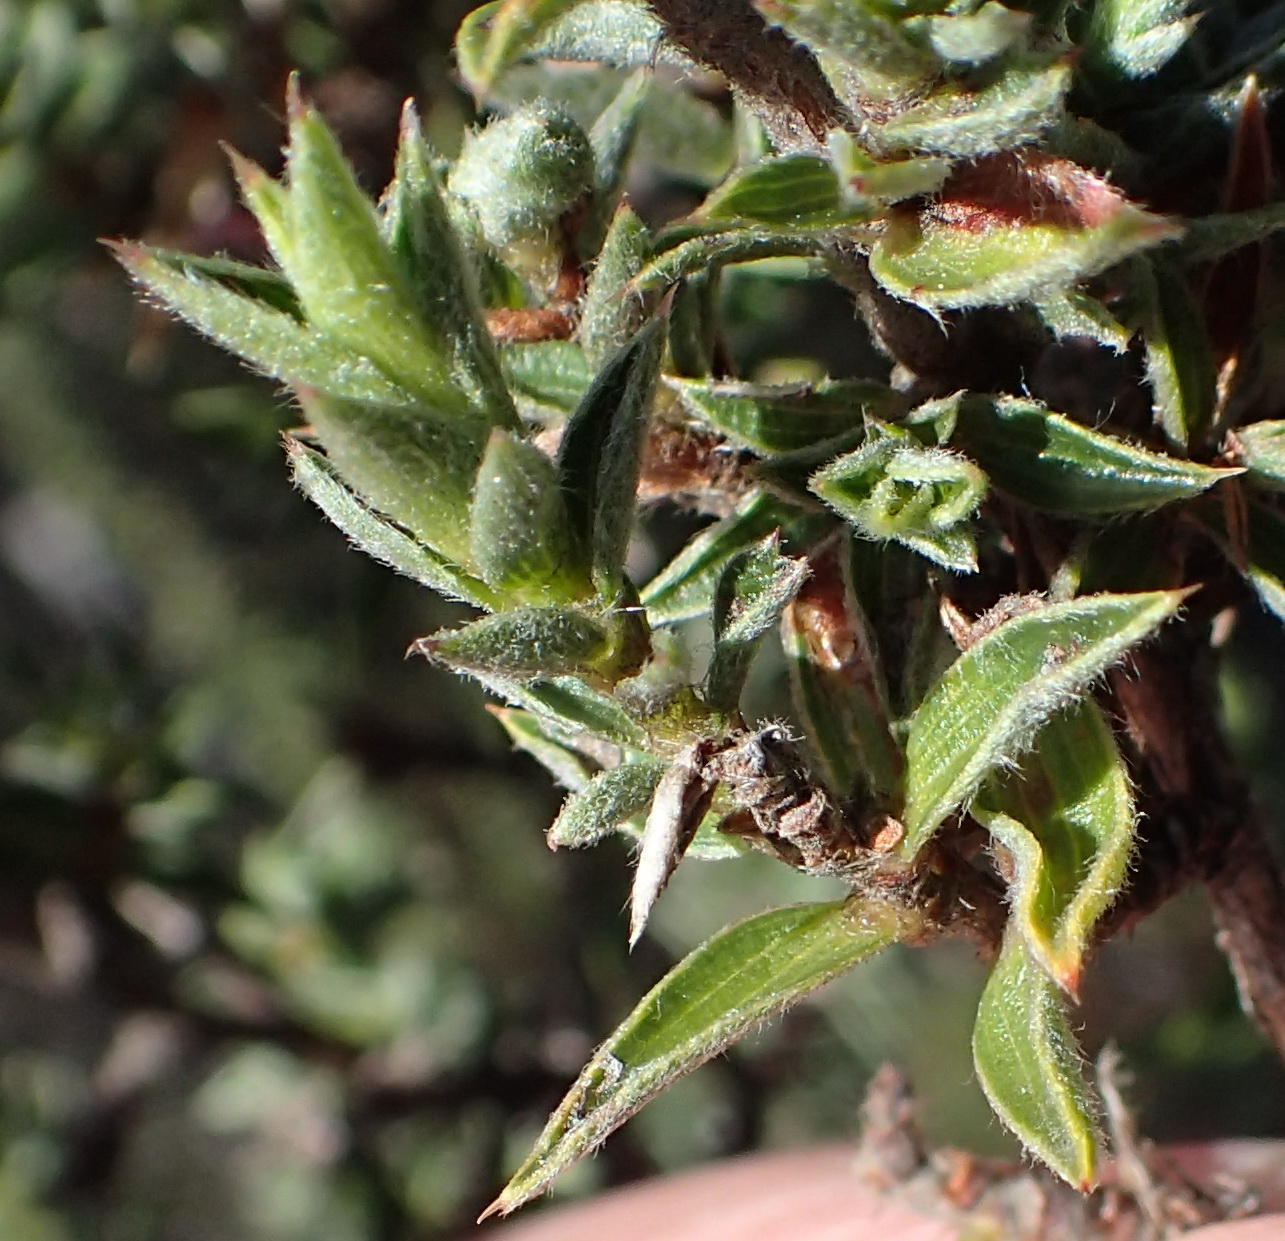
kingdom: Plantae
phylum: Tracheophyta
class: Magnoliopsida
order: Rosales
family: Rosaceae
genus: Cliffortia
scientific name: Cliffortia ruscifolia
